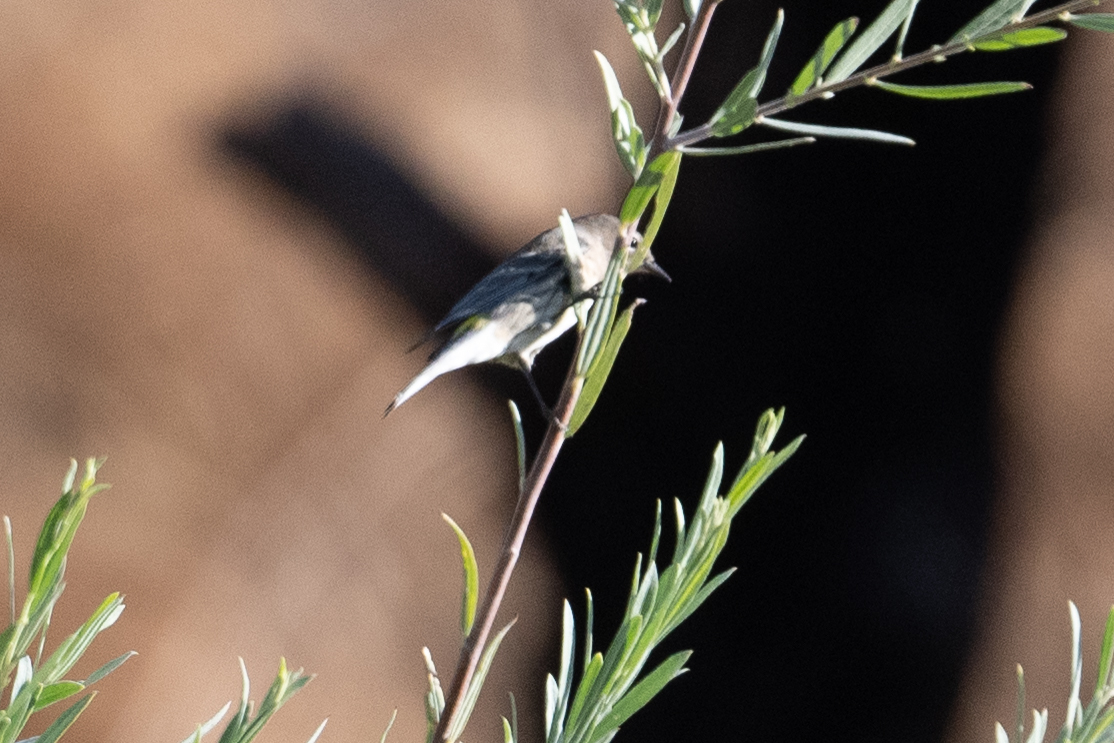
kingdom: Animalia
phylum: Chordata
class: Aves
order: Passeriformes
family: Parulidae
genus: Setophaga
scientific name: Setophaga coronata
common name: Myrtle warbler
